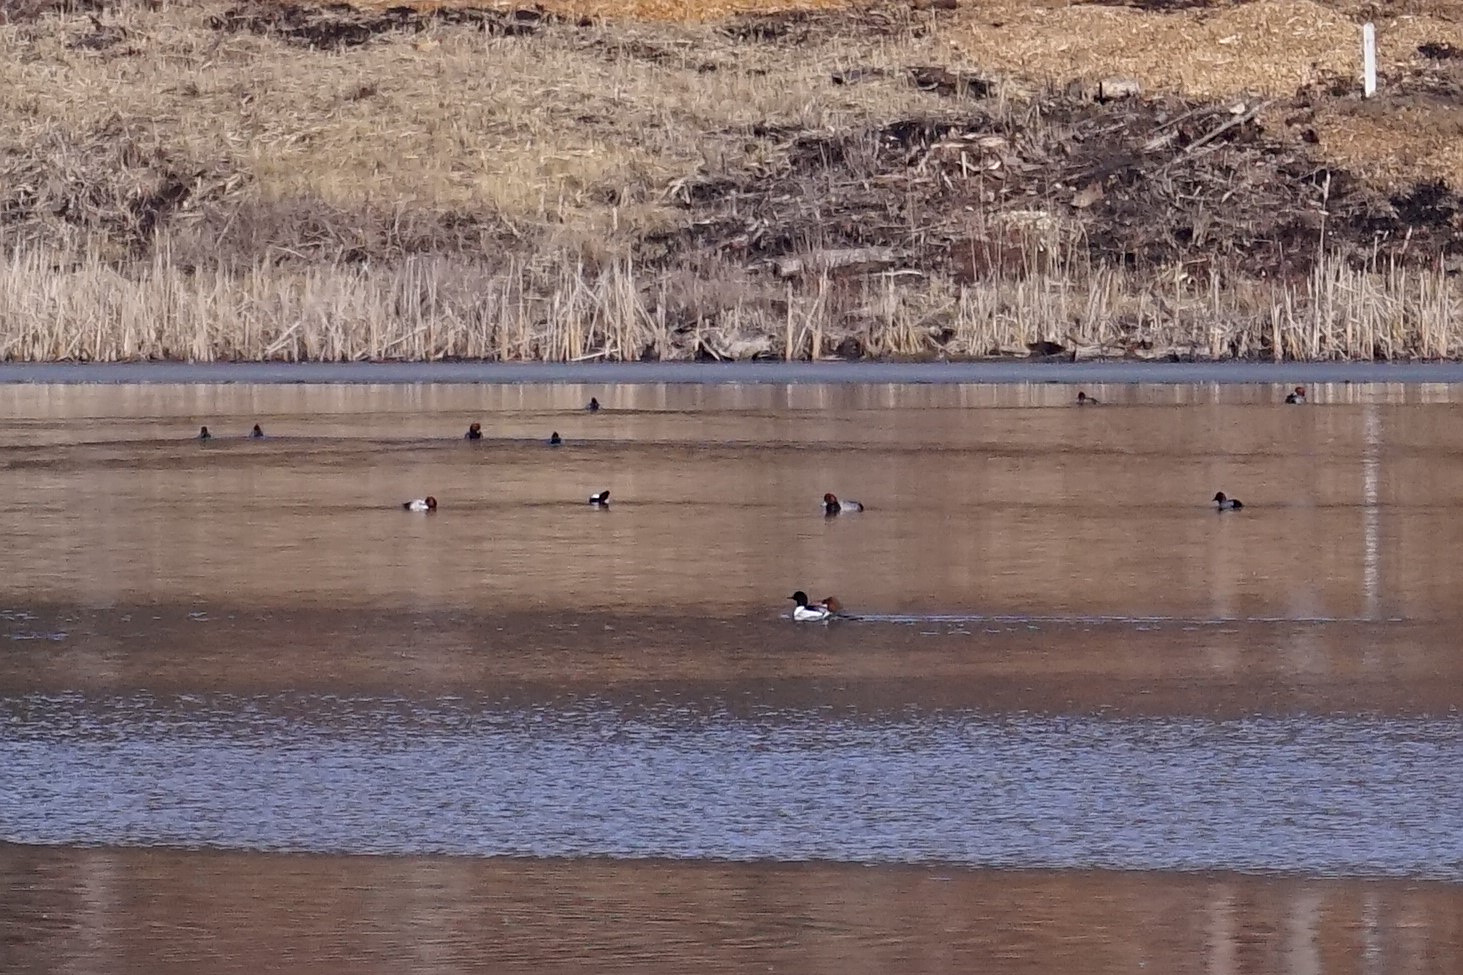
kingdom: Animalia
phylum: Chordata
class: Aves
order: Anseriformes
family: Anatidae
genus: Aythya
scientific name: Aythya americana
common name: Redhead
